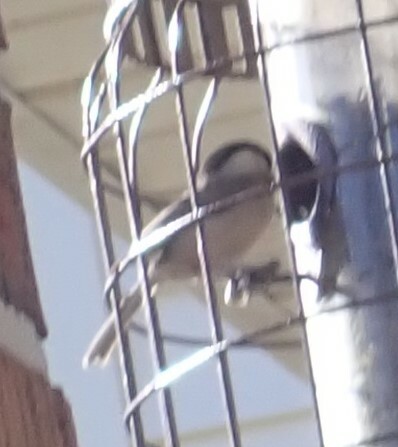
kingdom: Animalia
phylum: Chordata
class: Aves
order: Passeriformes
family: Paridae
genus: Poecile
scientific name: Poecile carolinensis
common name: Carolina chickadee
